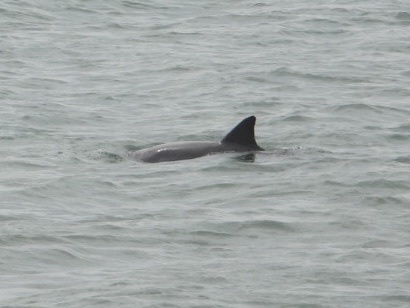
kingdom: Animalia
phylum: Chordata
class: Mammalia
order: Cetacea
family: Delphinidae
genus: Tursiops
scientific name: Tursiops truncatus
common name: Bottlenose dolphin
